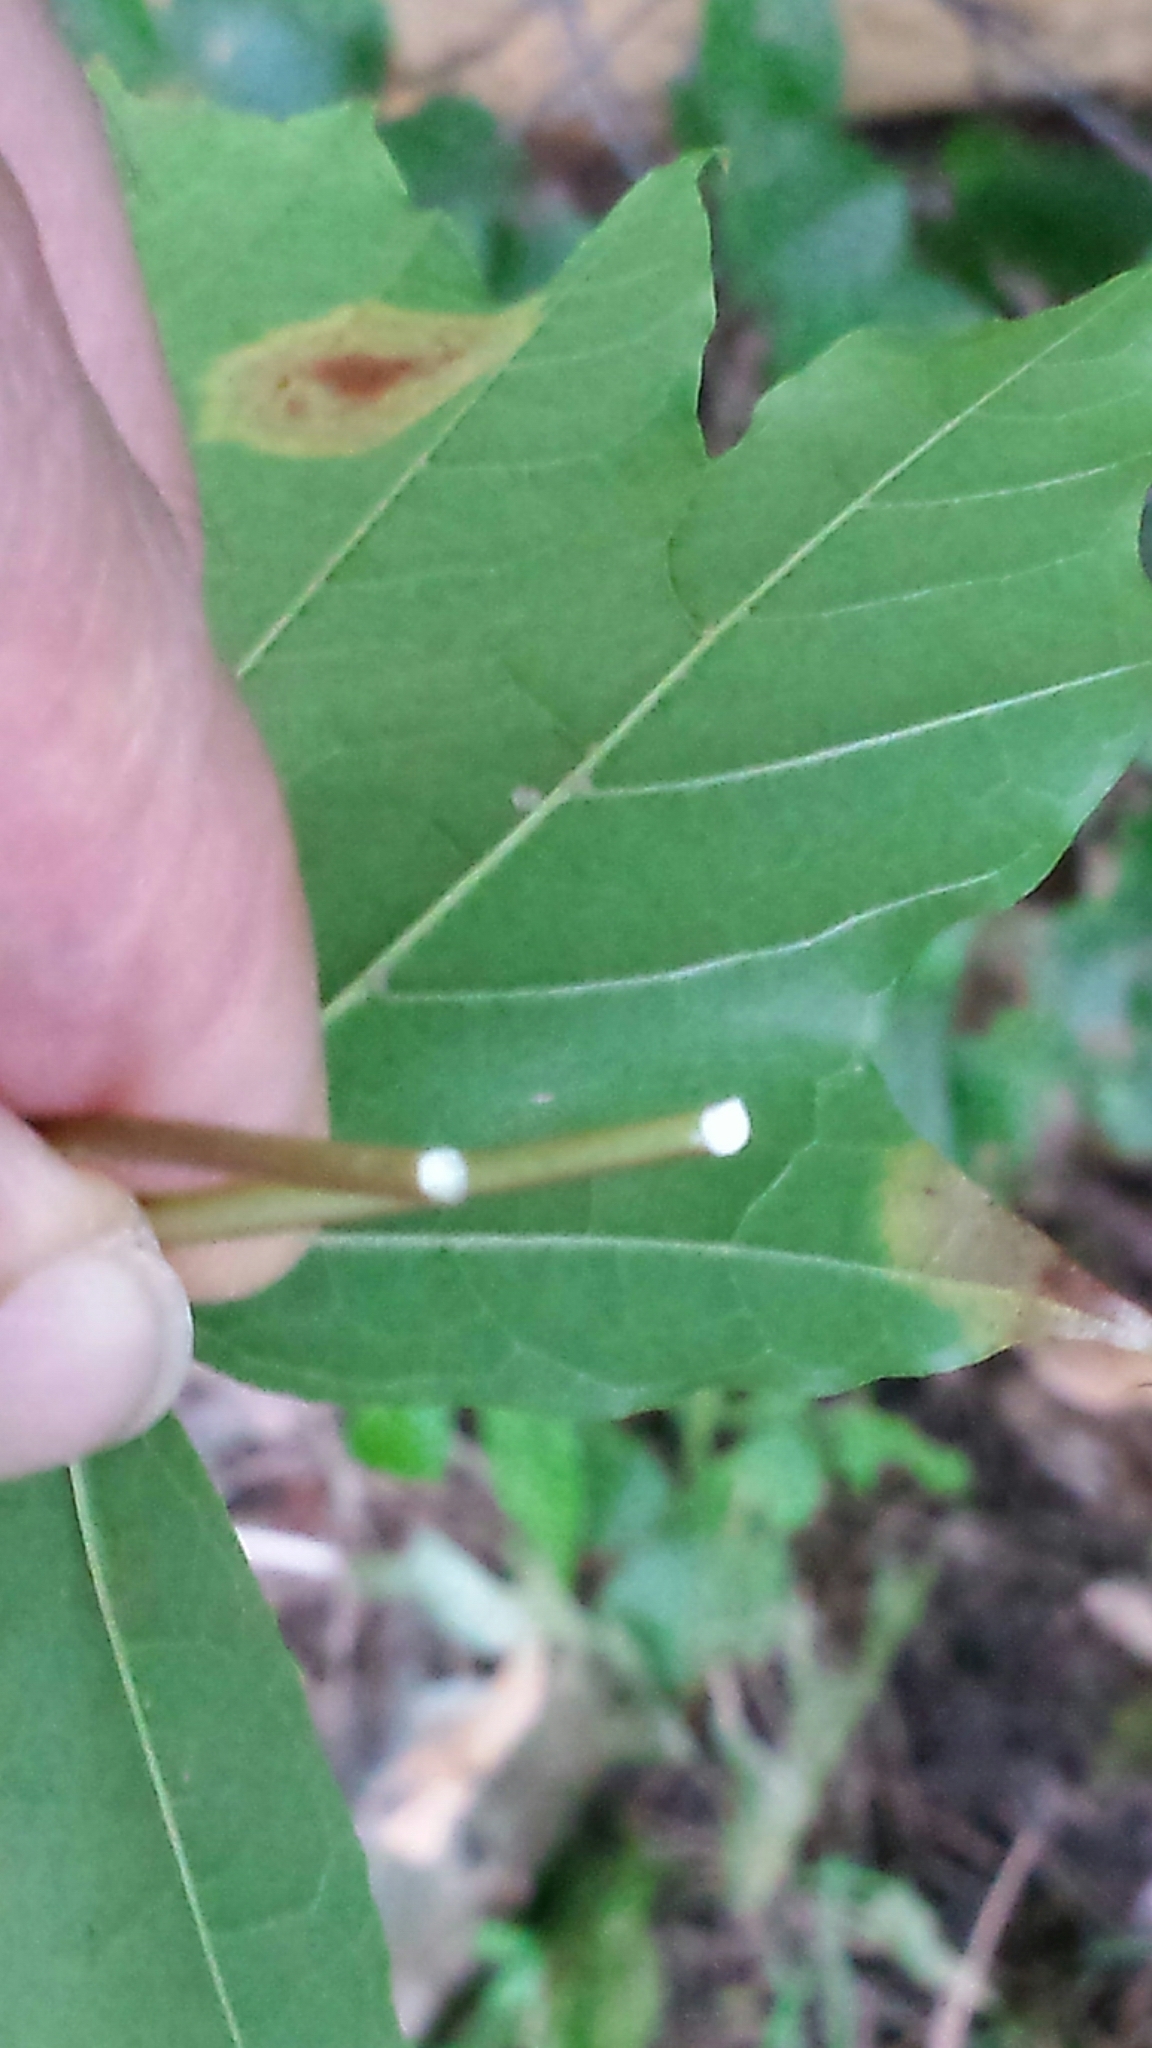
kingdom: Plantae
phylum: Tracheophyta
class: Magnoliopsida
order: Sapindales
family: Sapindaceae
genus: Acer
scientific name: Acer platanoides
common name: Norway maple
